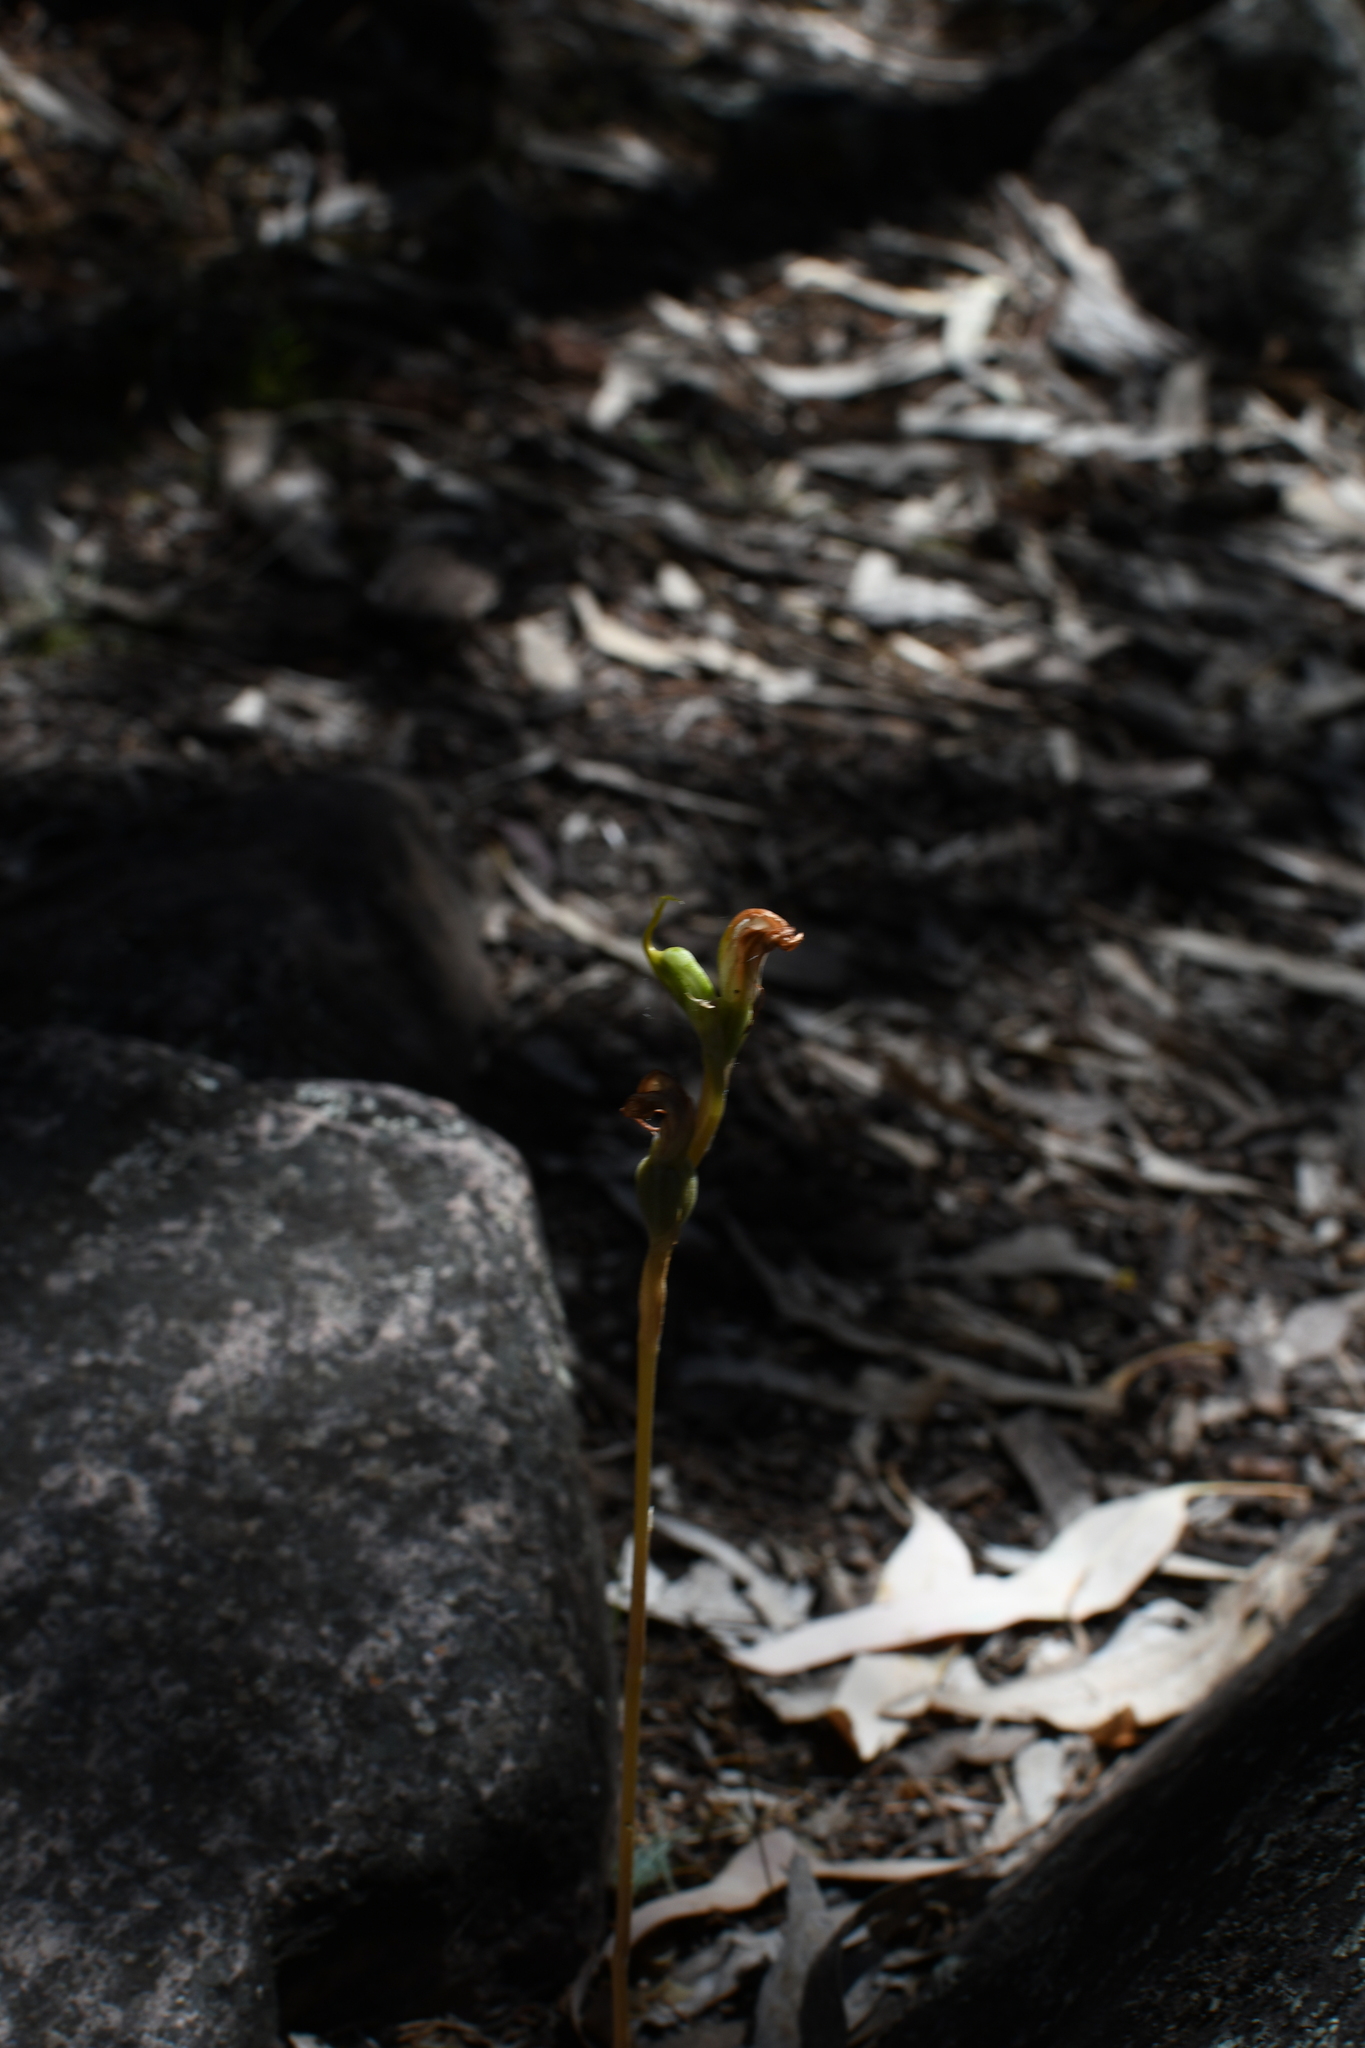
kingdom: Plantae
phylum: Tracheophyta
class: Liliopsida
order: Asparagales
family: Orchidaceae
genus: Pterostylis
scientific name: Pterostylis
